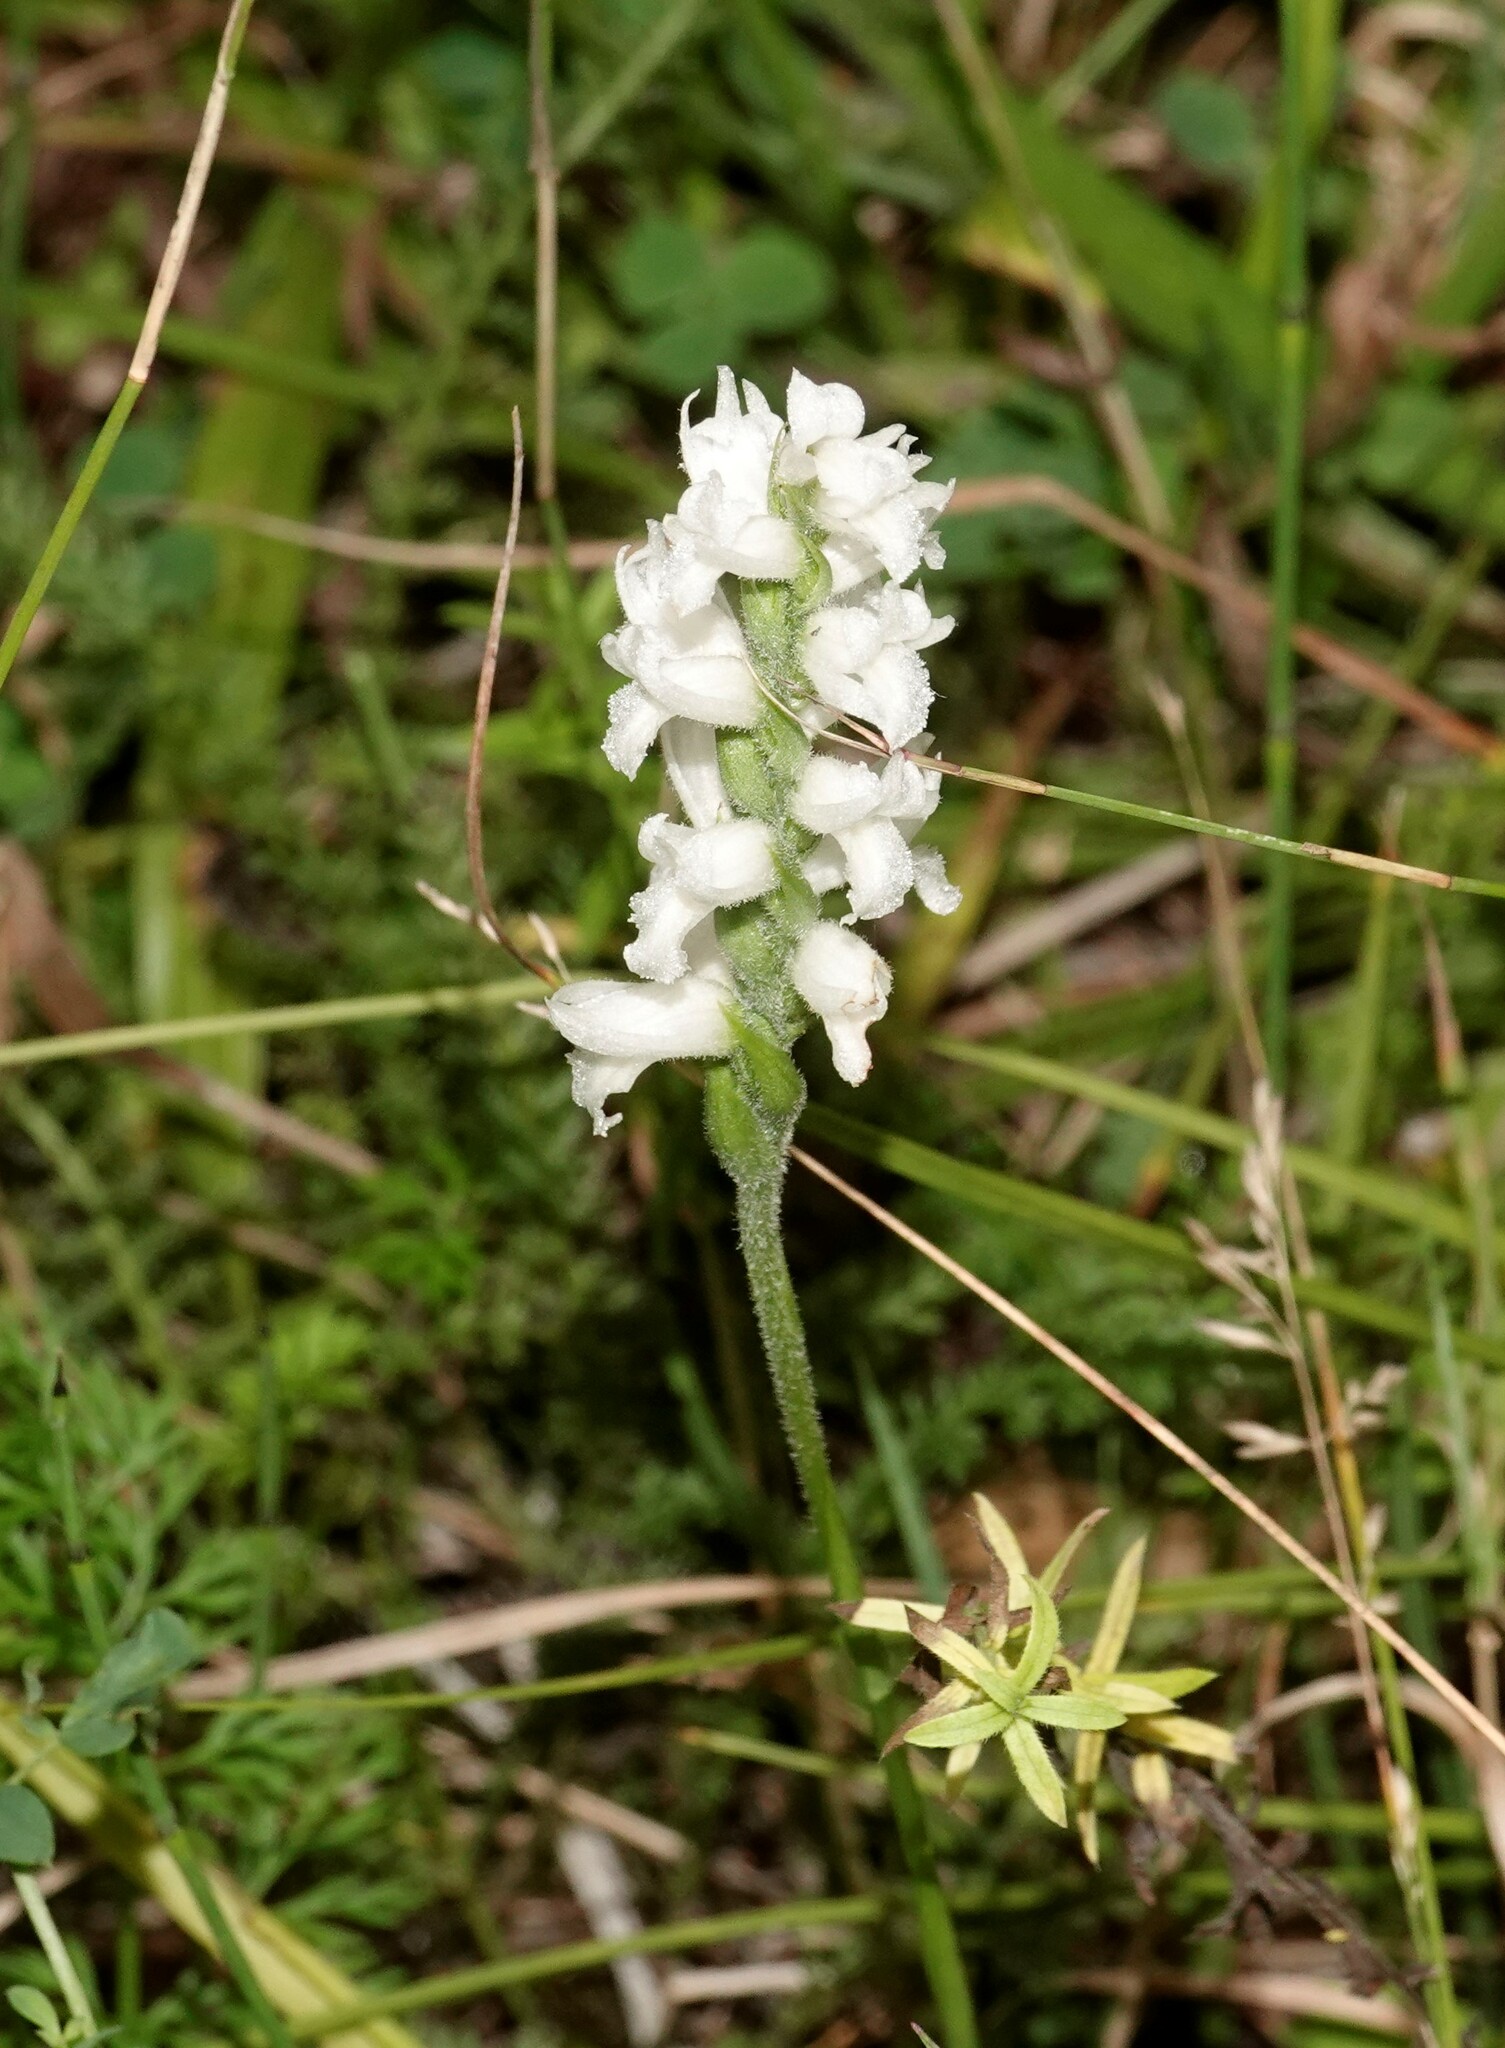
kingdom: Plantae
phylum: Tracheophyta
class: Liliopsida
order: Asparagales
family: Orchidaceae
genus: Spiranthes
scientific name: Spiranthes incurva
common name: Sphinx ladies'-tresses
